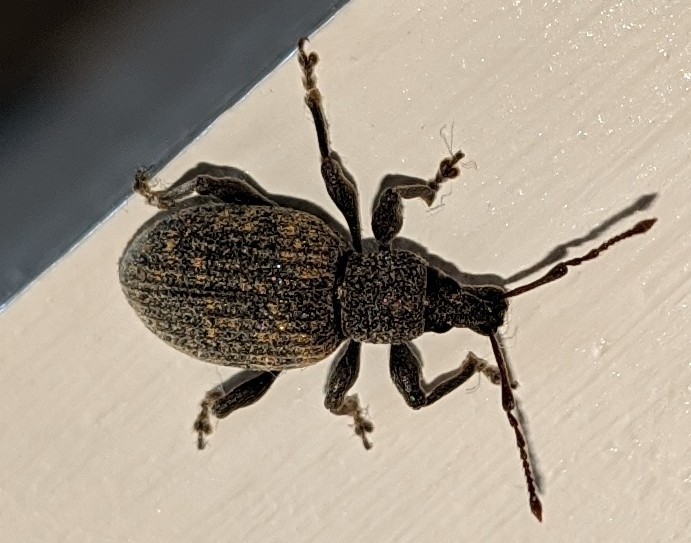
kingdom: Animalia
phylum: Arthropoda
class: Insecta
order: Coleoptera
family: Curculionidae
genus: Otiorhynchus
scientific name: Otiorhynchus sulcatus
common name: Black vine weevil
